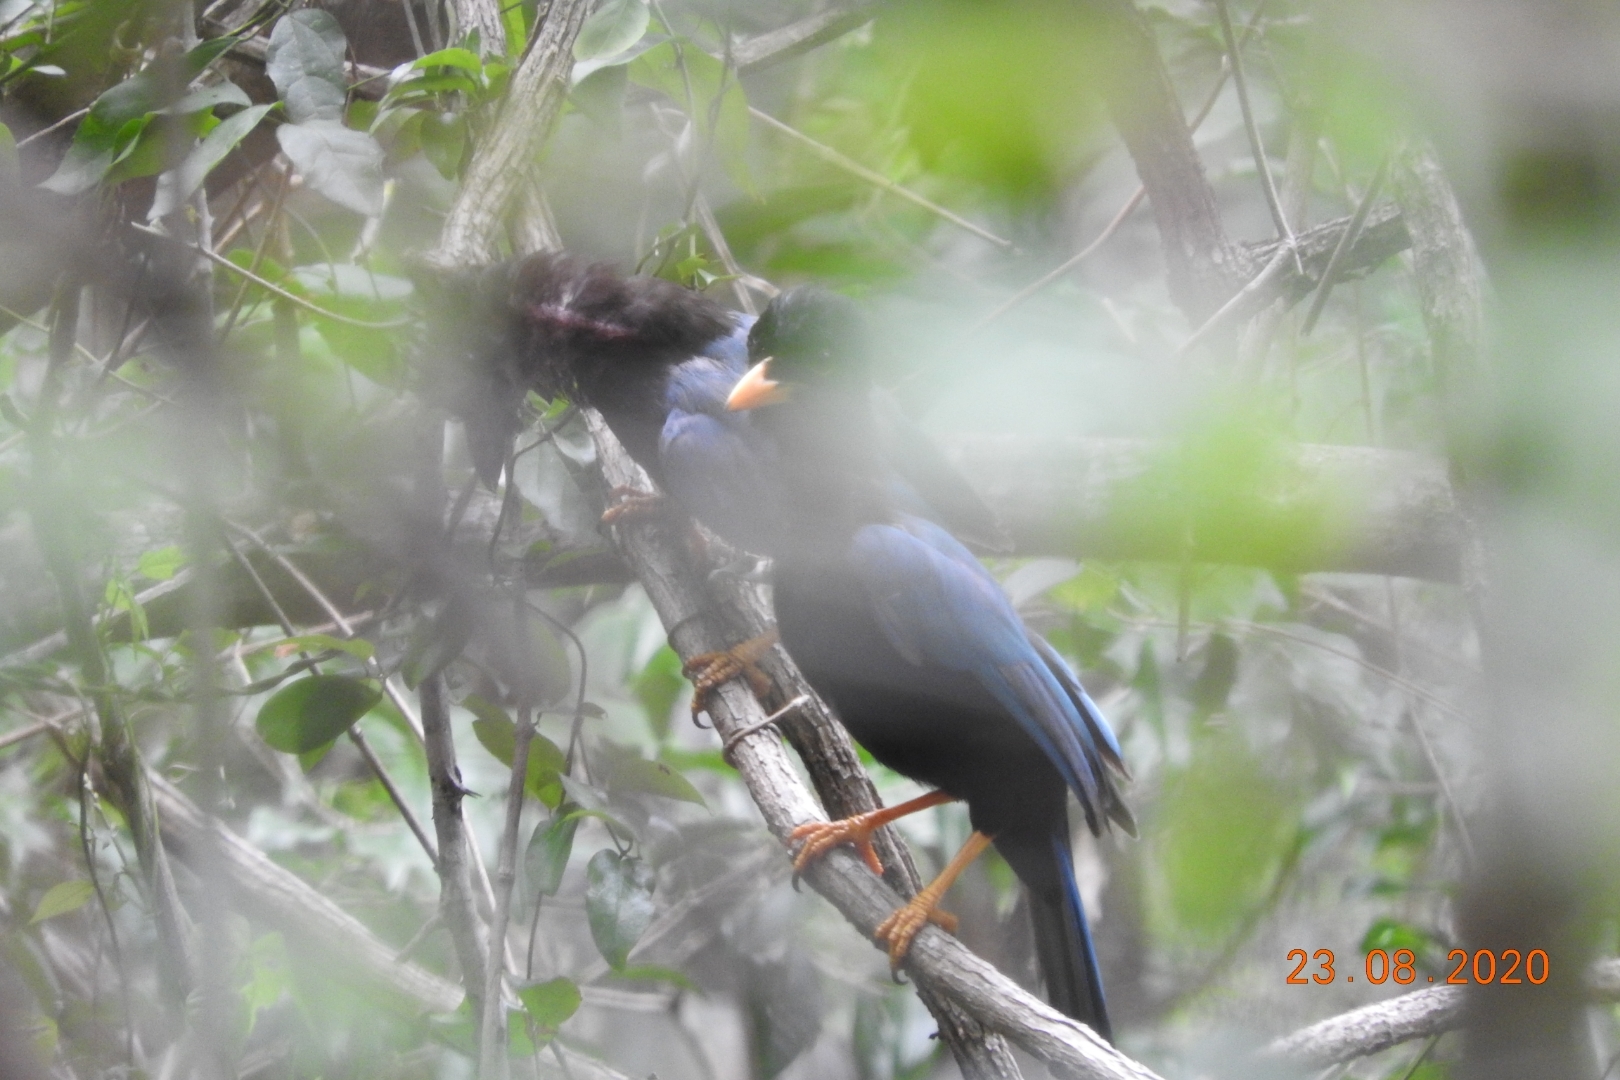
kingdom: Animalia
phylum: Chordata
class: Aves
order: Passeriformes
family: Corvidae
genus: Cyanocorax
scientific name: Cyanocorax yucatanicus
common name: Yucatan jay
